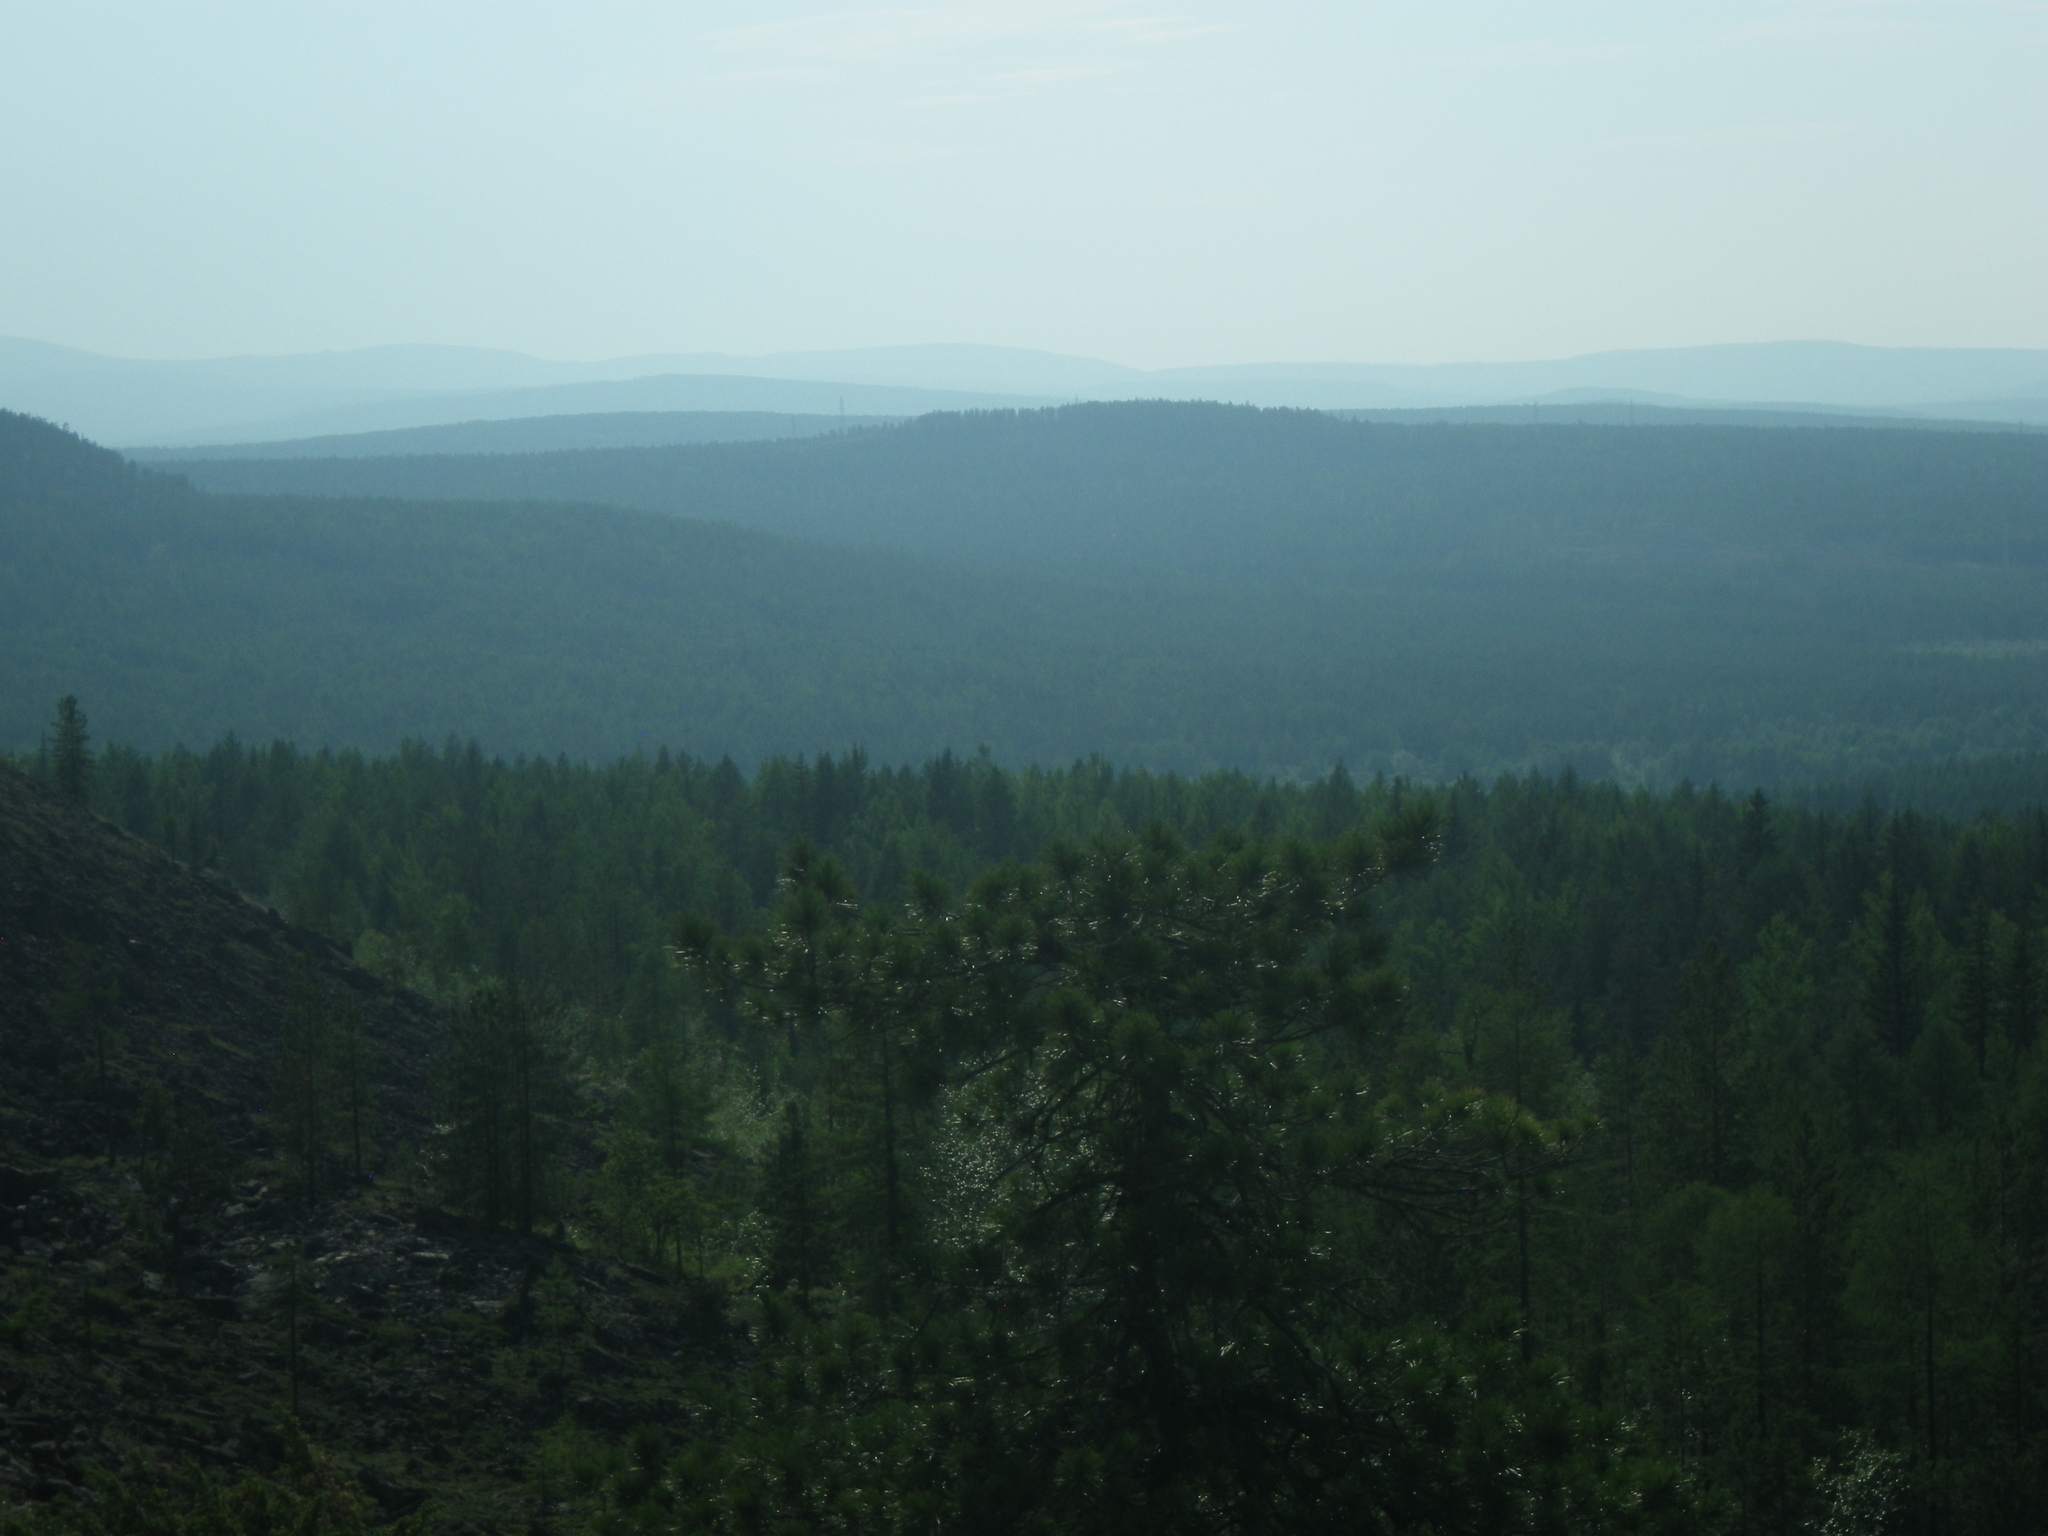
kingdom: Plantae
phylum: Tracheophyta
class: Pinopsida
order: Pinales
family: Pinaceae
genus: Pinus
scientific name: Pinus sibirica
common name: Siberian pine
